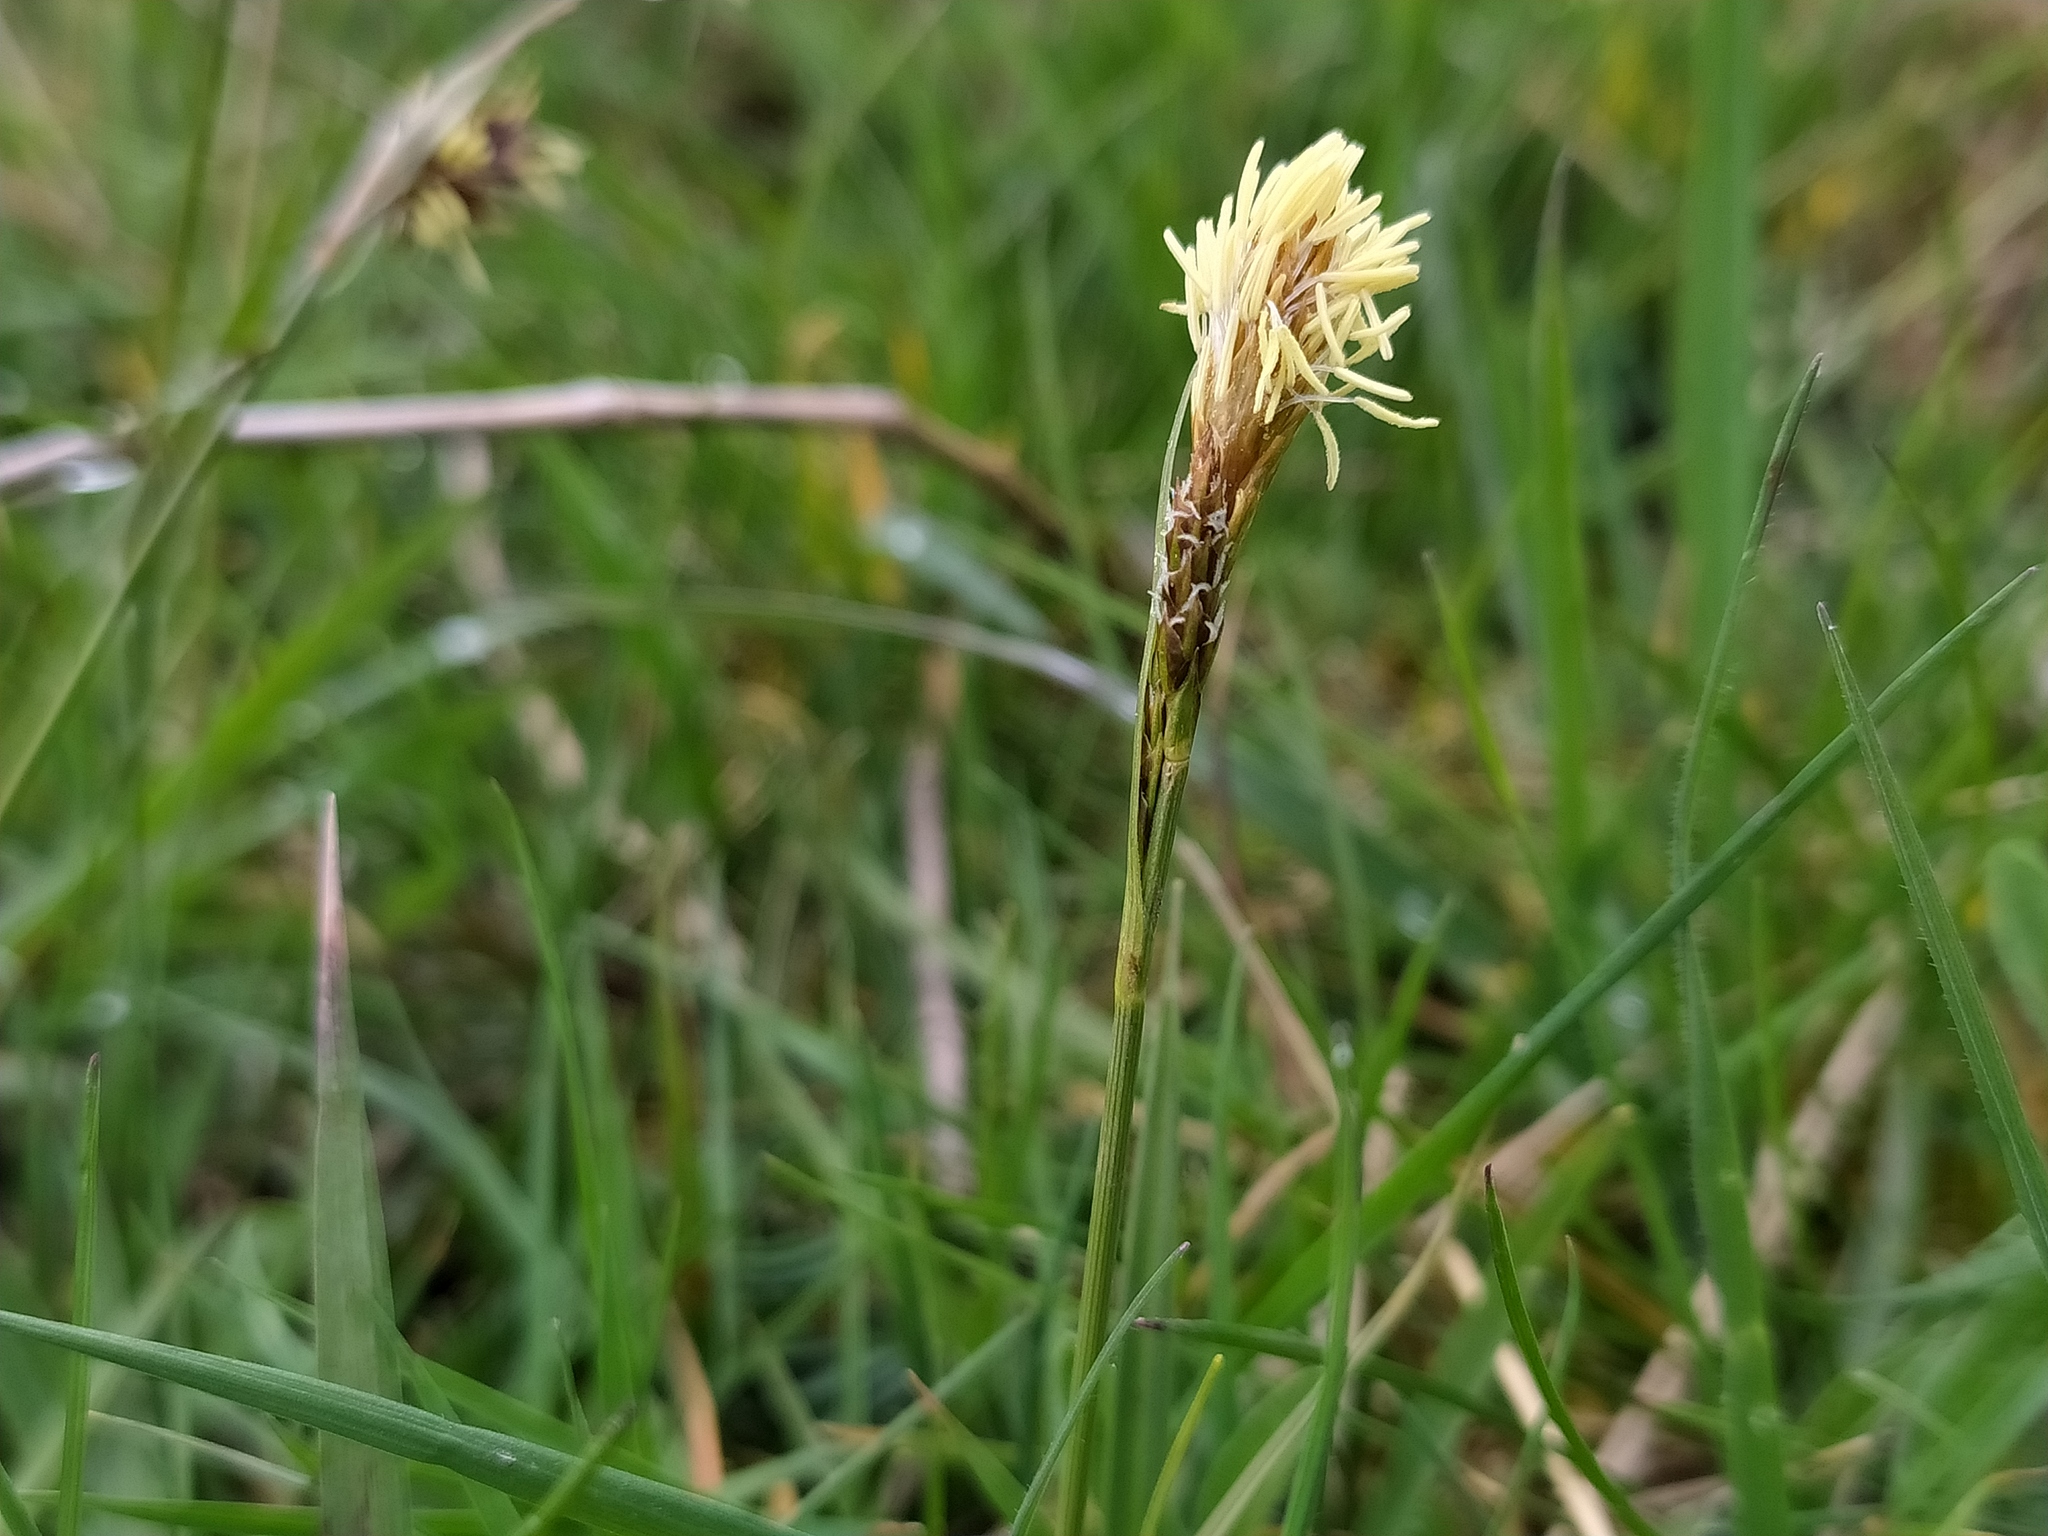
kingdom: Plantae
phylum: Tracheophyta
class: Liliopsida
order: Poales
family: Cyperaceae
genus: Carex
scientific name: Carex caryophyllea
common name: Spring sedge
